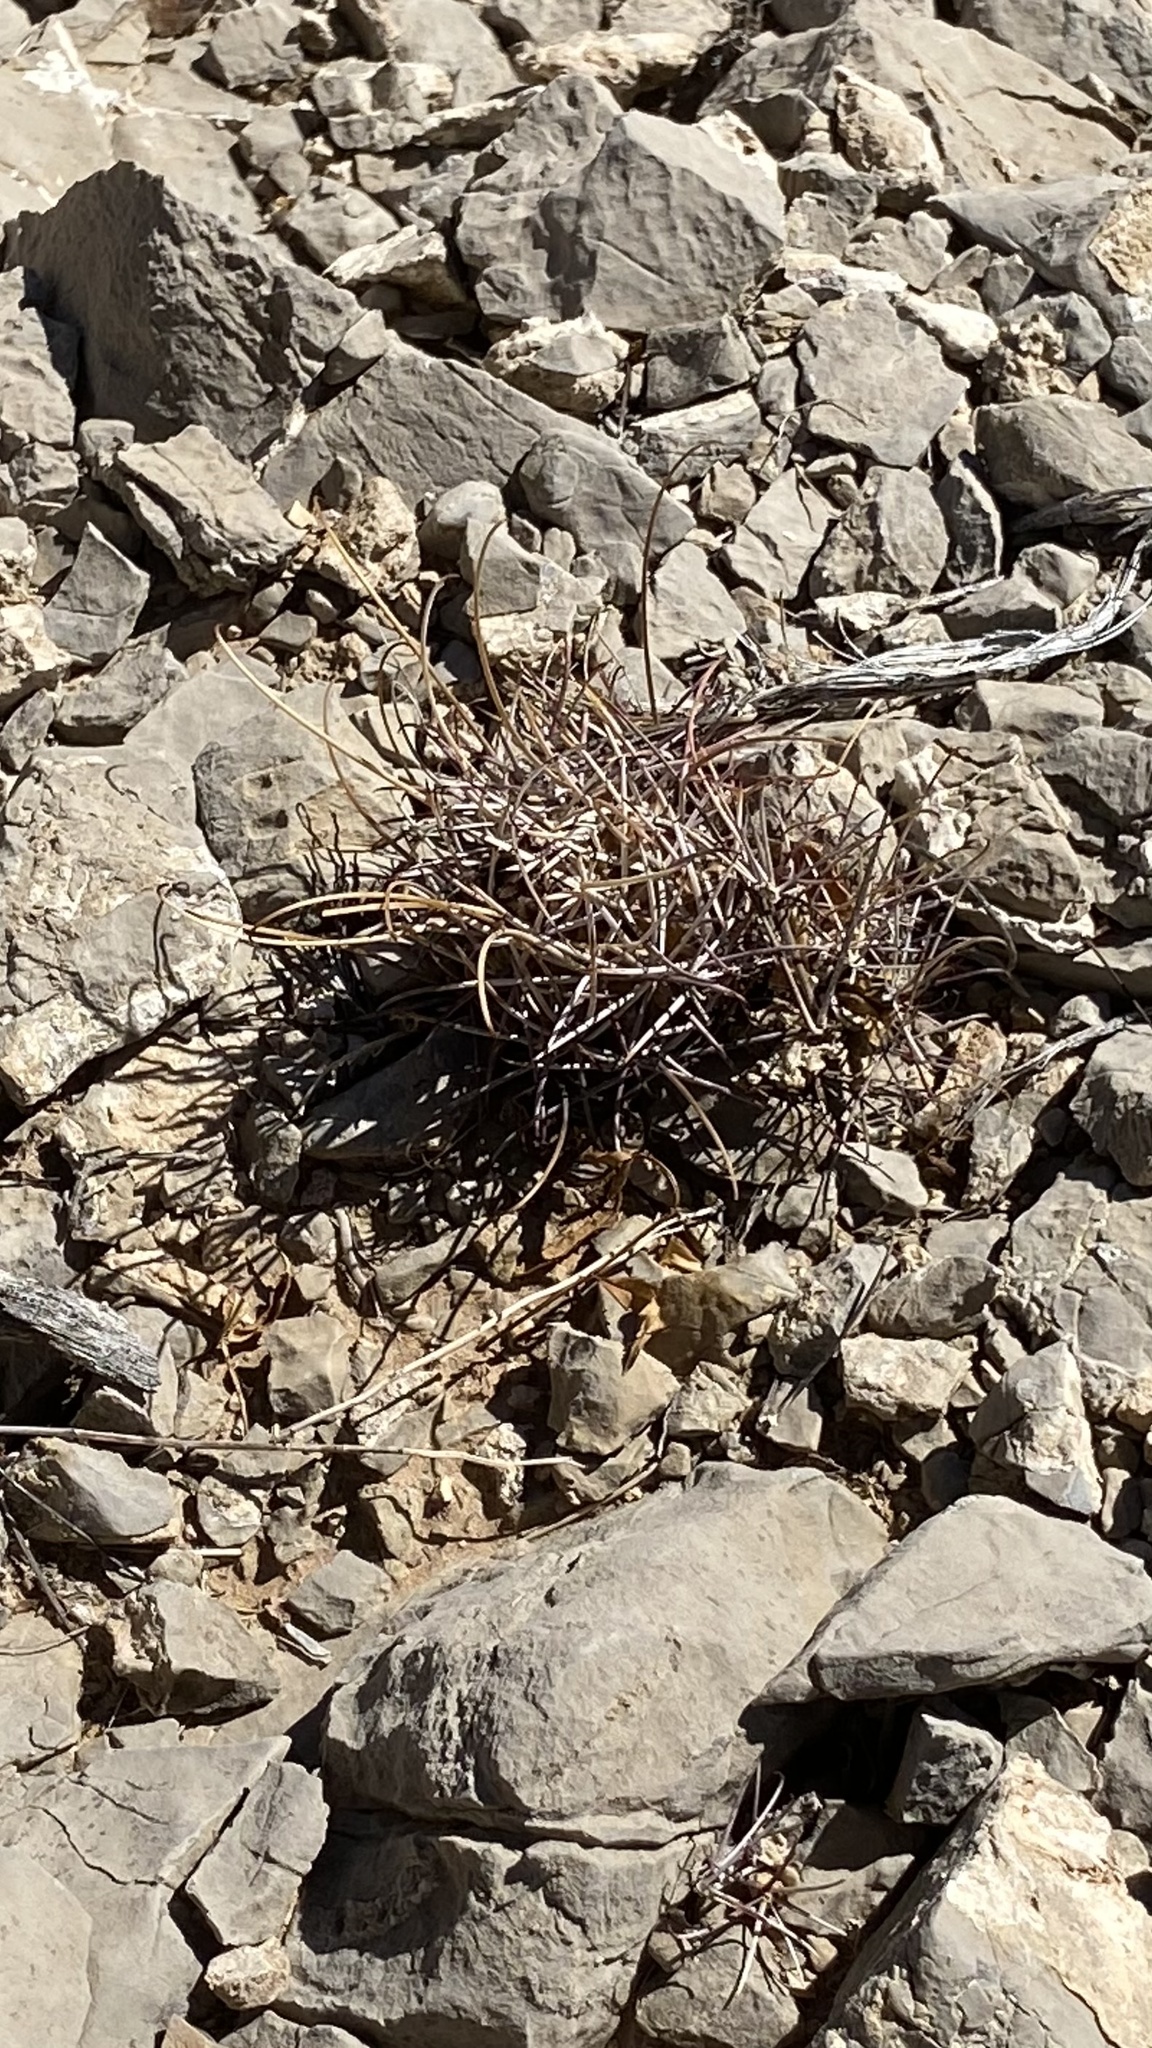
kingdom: Plantae
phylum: Tracheophyta
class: Magnoliopsida
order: Caryophyllales
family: Cactaceae
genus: Ferocactus
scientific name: Ferocactus uncinatus
